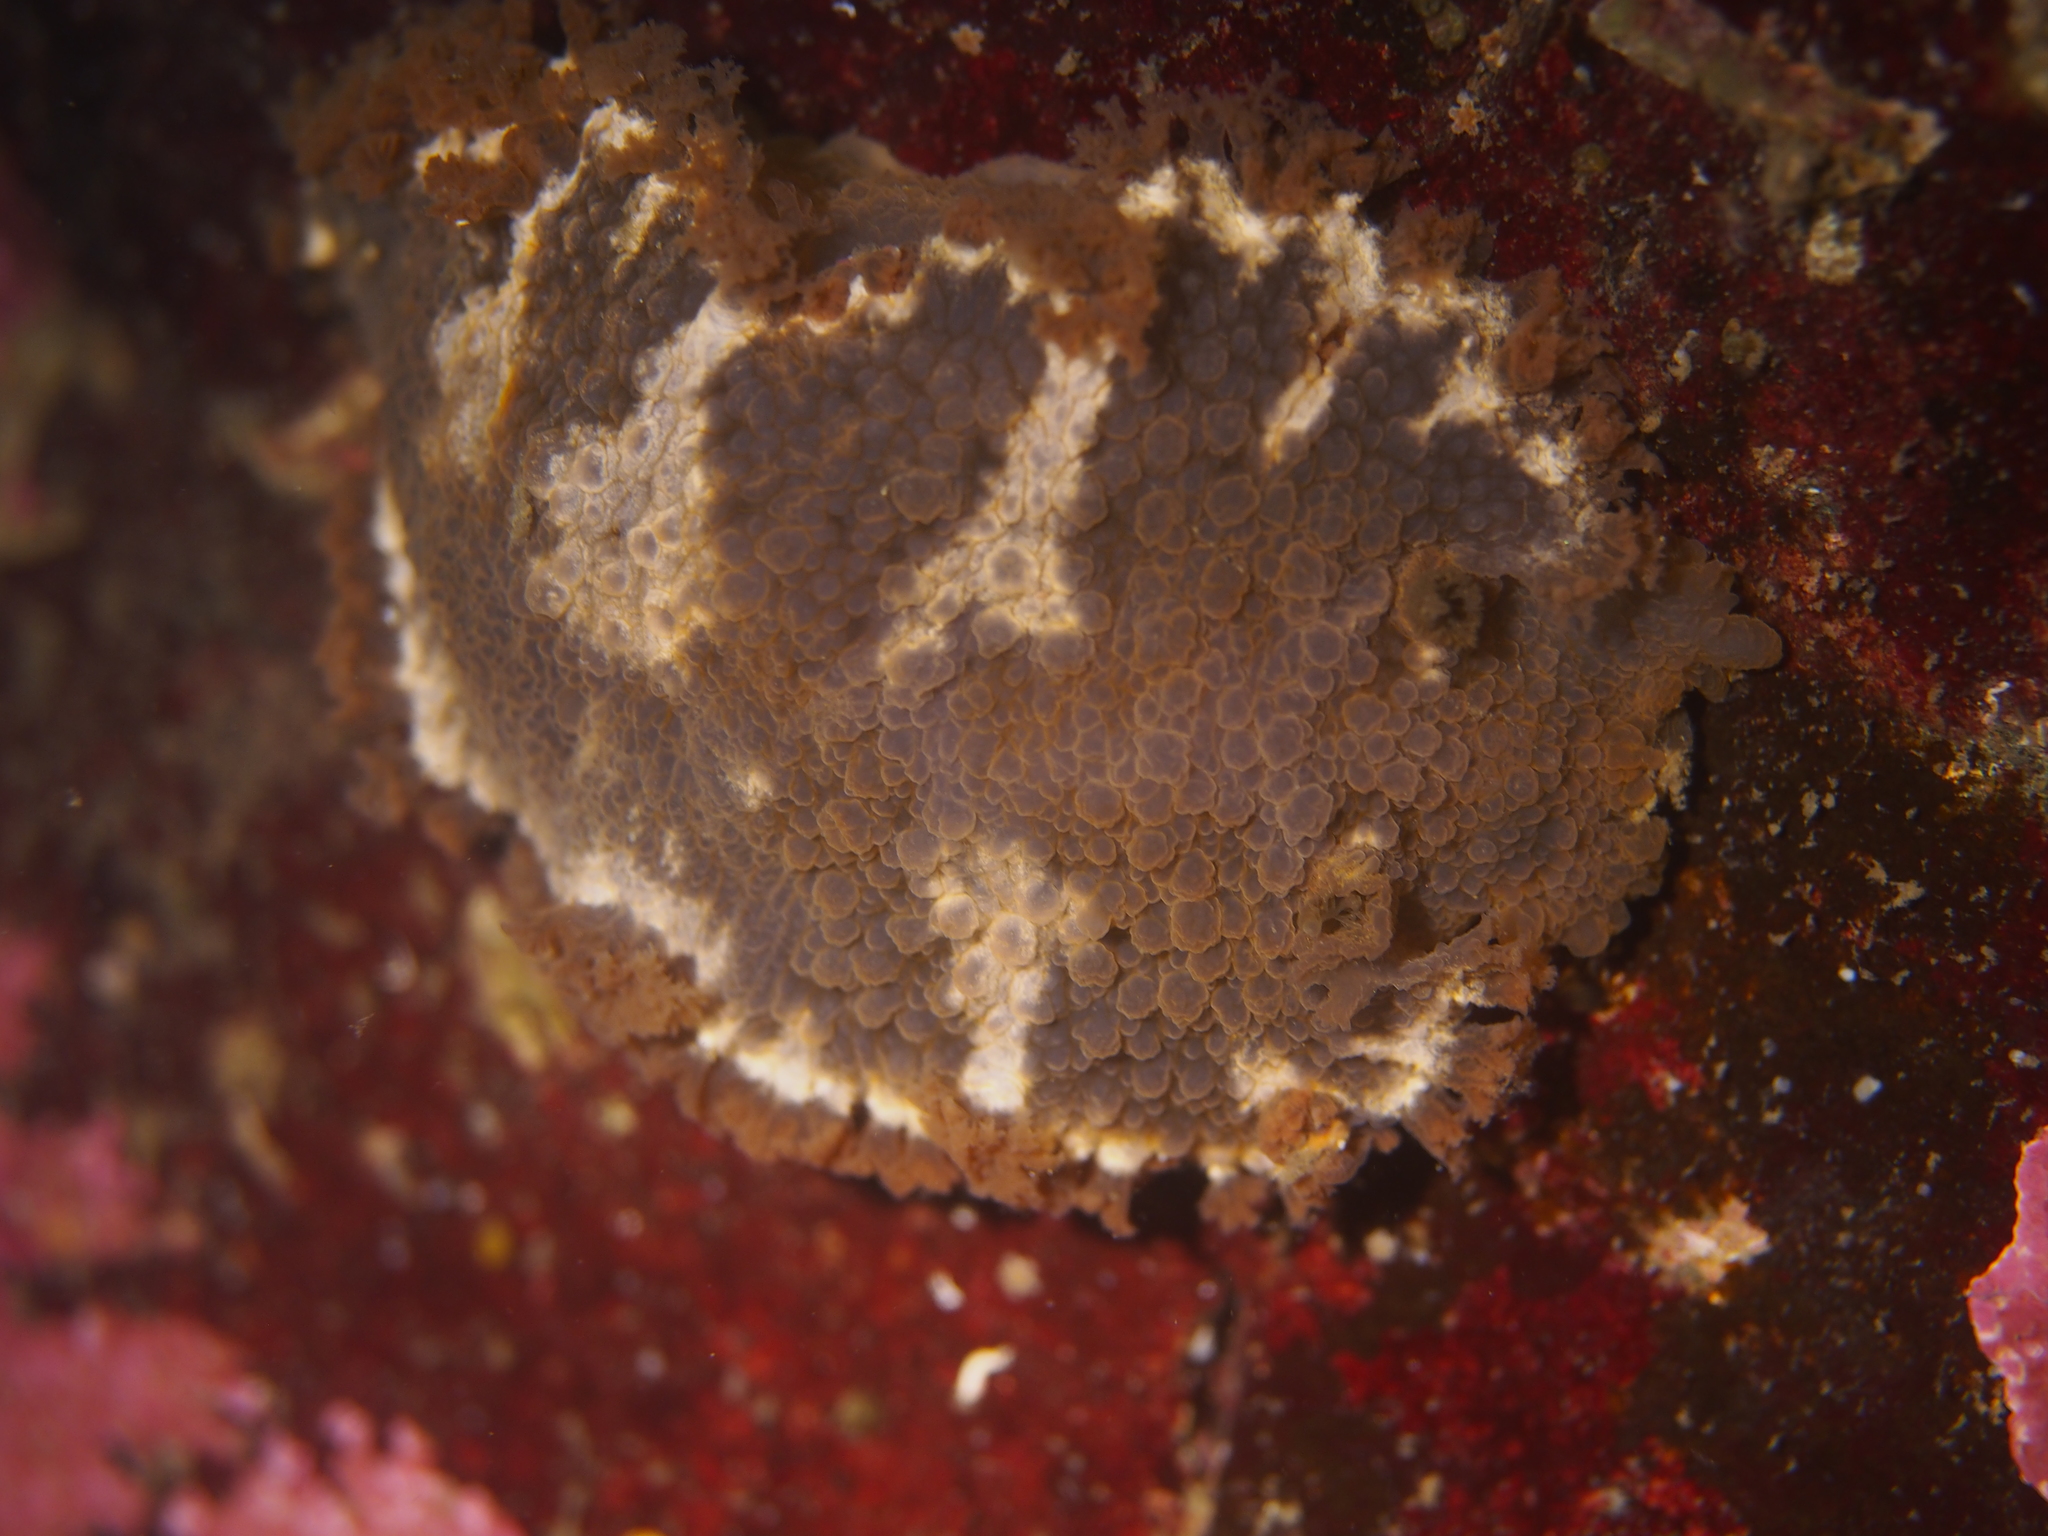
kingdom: Animalia
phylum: Mollusca
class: Gastropoda
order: Nudibranchia
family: Tritoniidae
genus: Tritonia
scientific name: Tritonia hombergii
